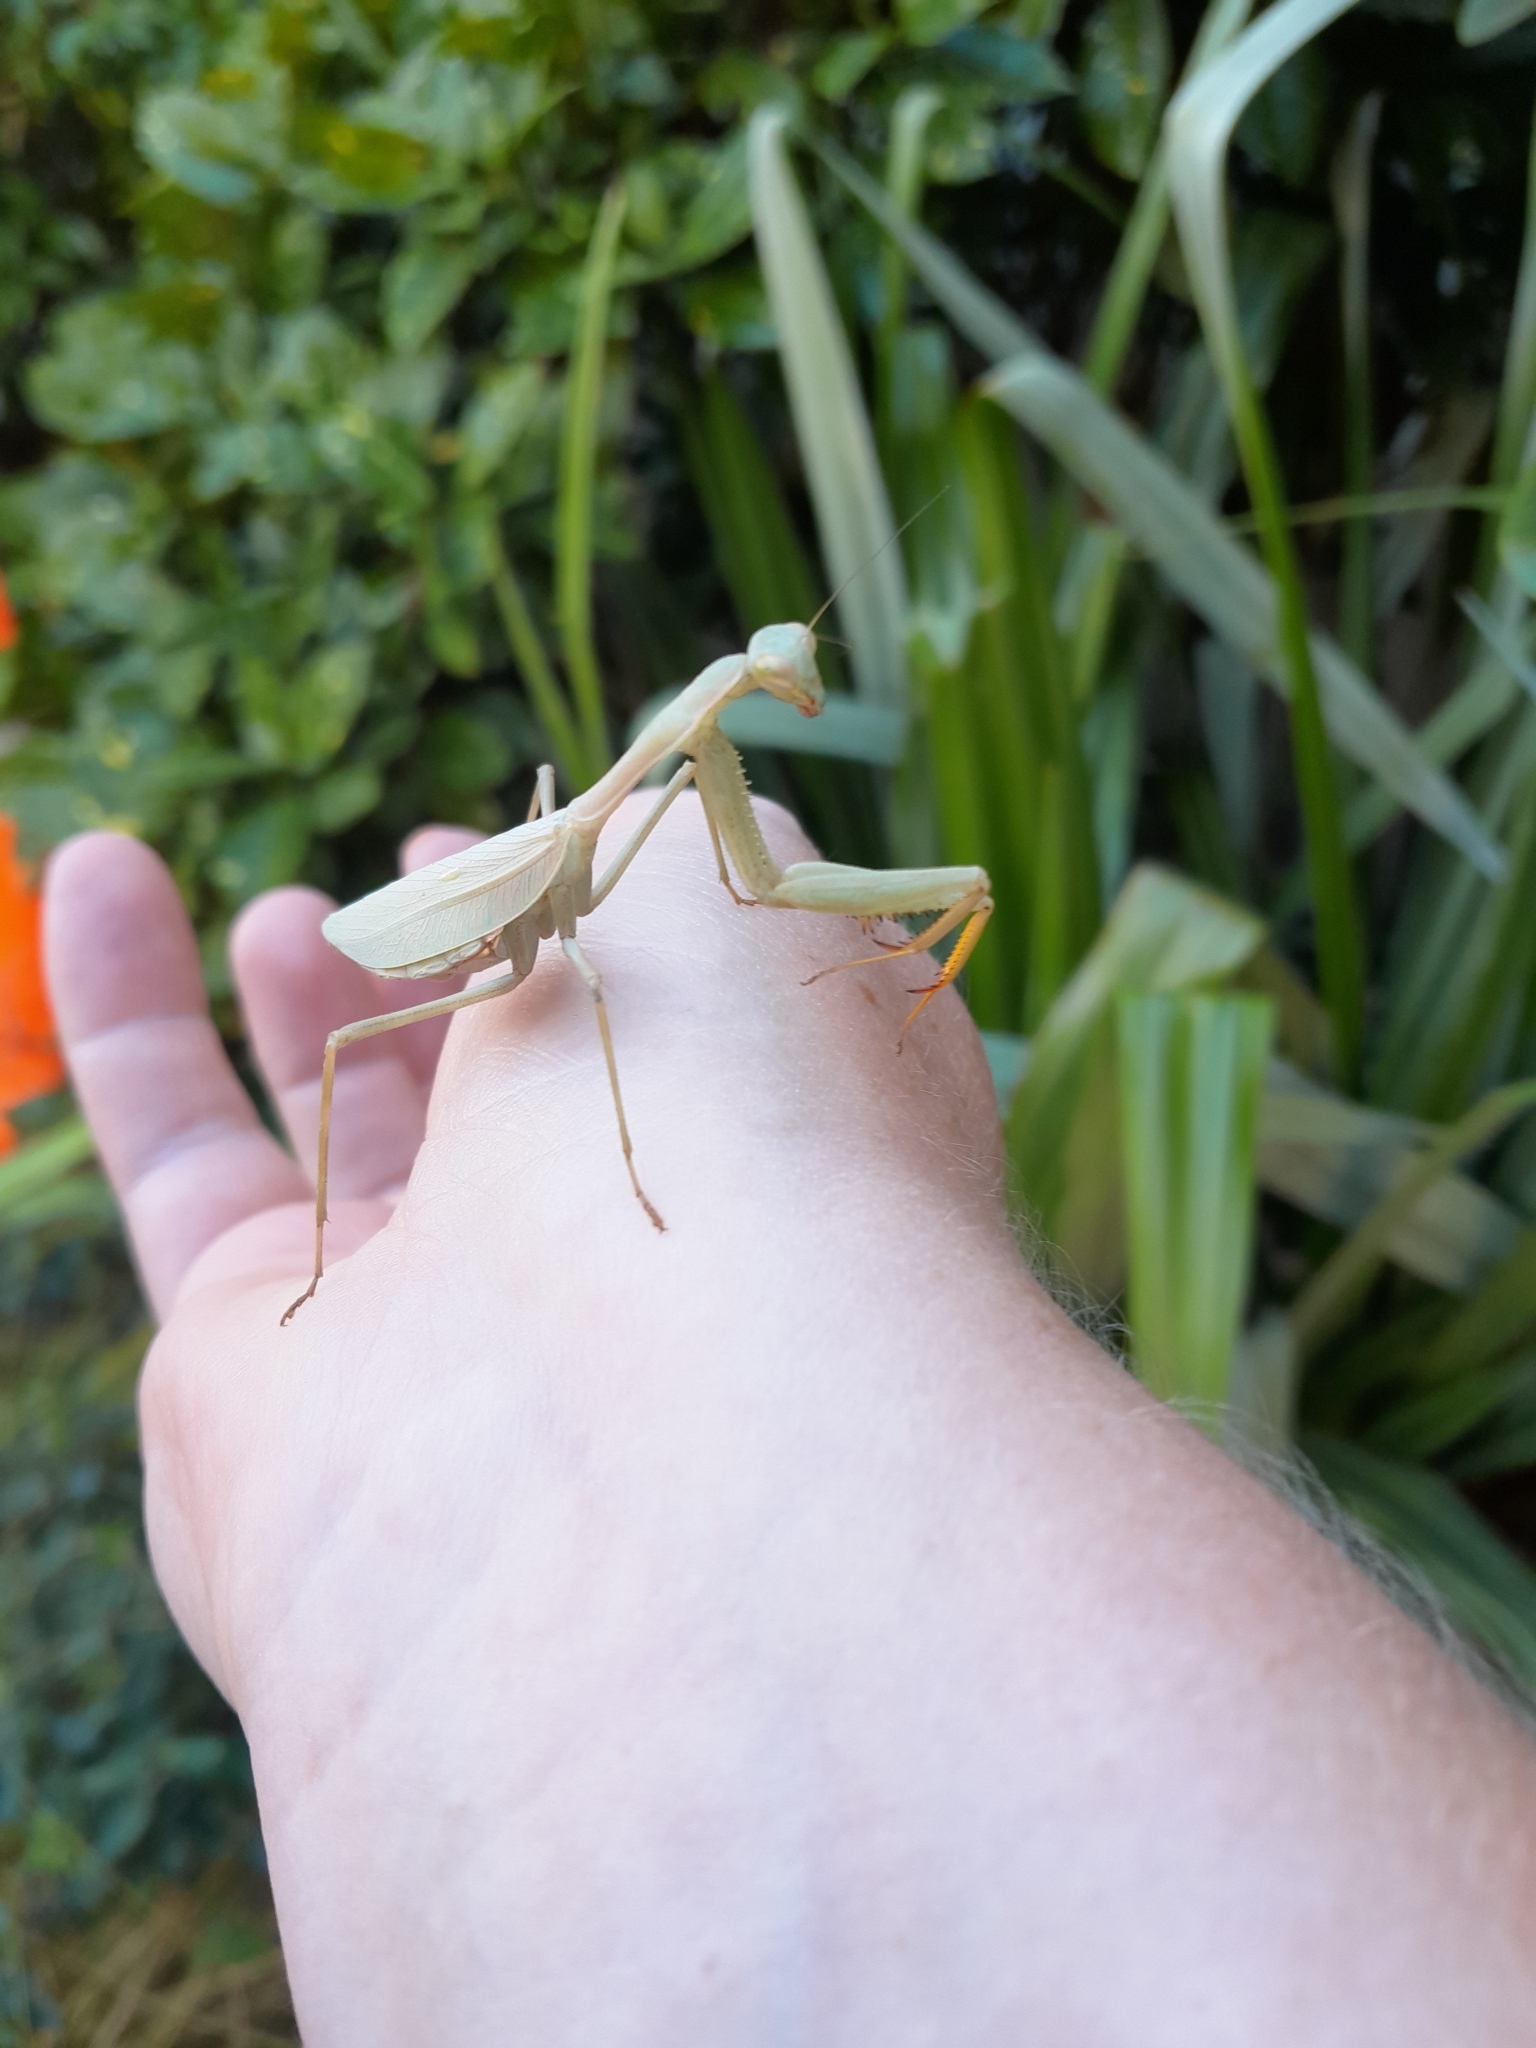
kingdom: Animalia
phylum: Arthropoda
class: Insecta
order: Mantodea
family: Miomantidae
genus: Miomantis
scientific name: Miomantis caffra
